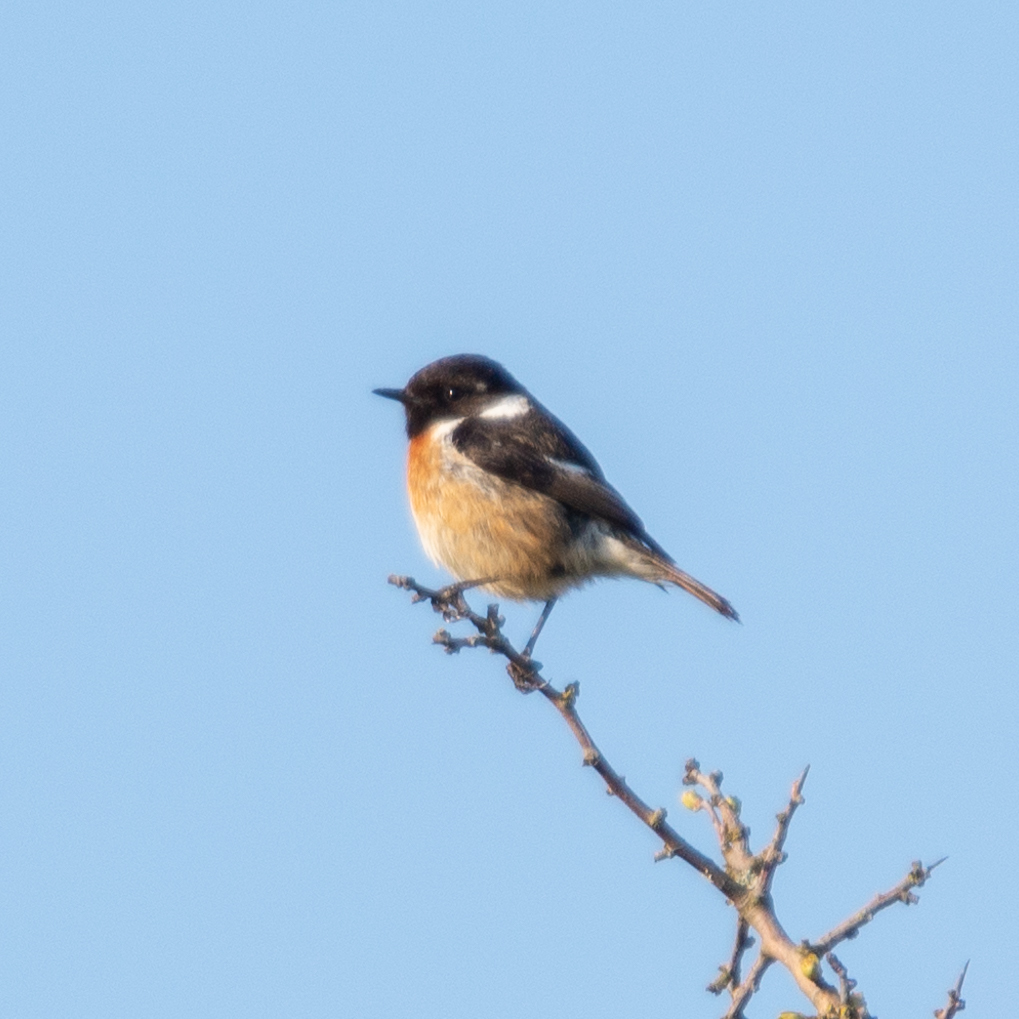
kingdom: Animalia
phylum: Chordata
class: Aves
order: Passeriformes
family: Muscicapidae
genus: Saxicola
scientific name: Saxicola rubicola
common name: European stonechat
